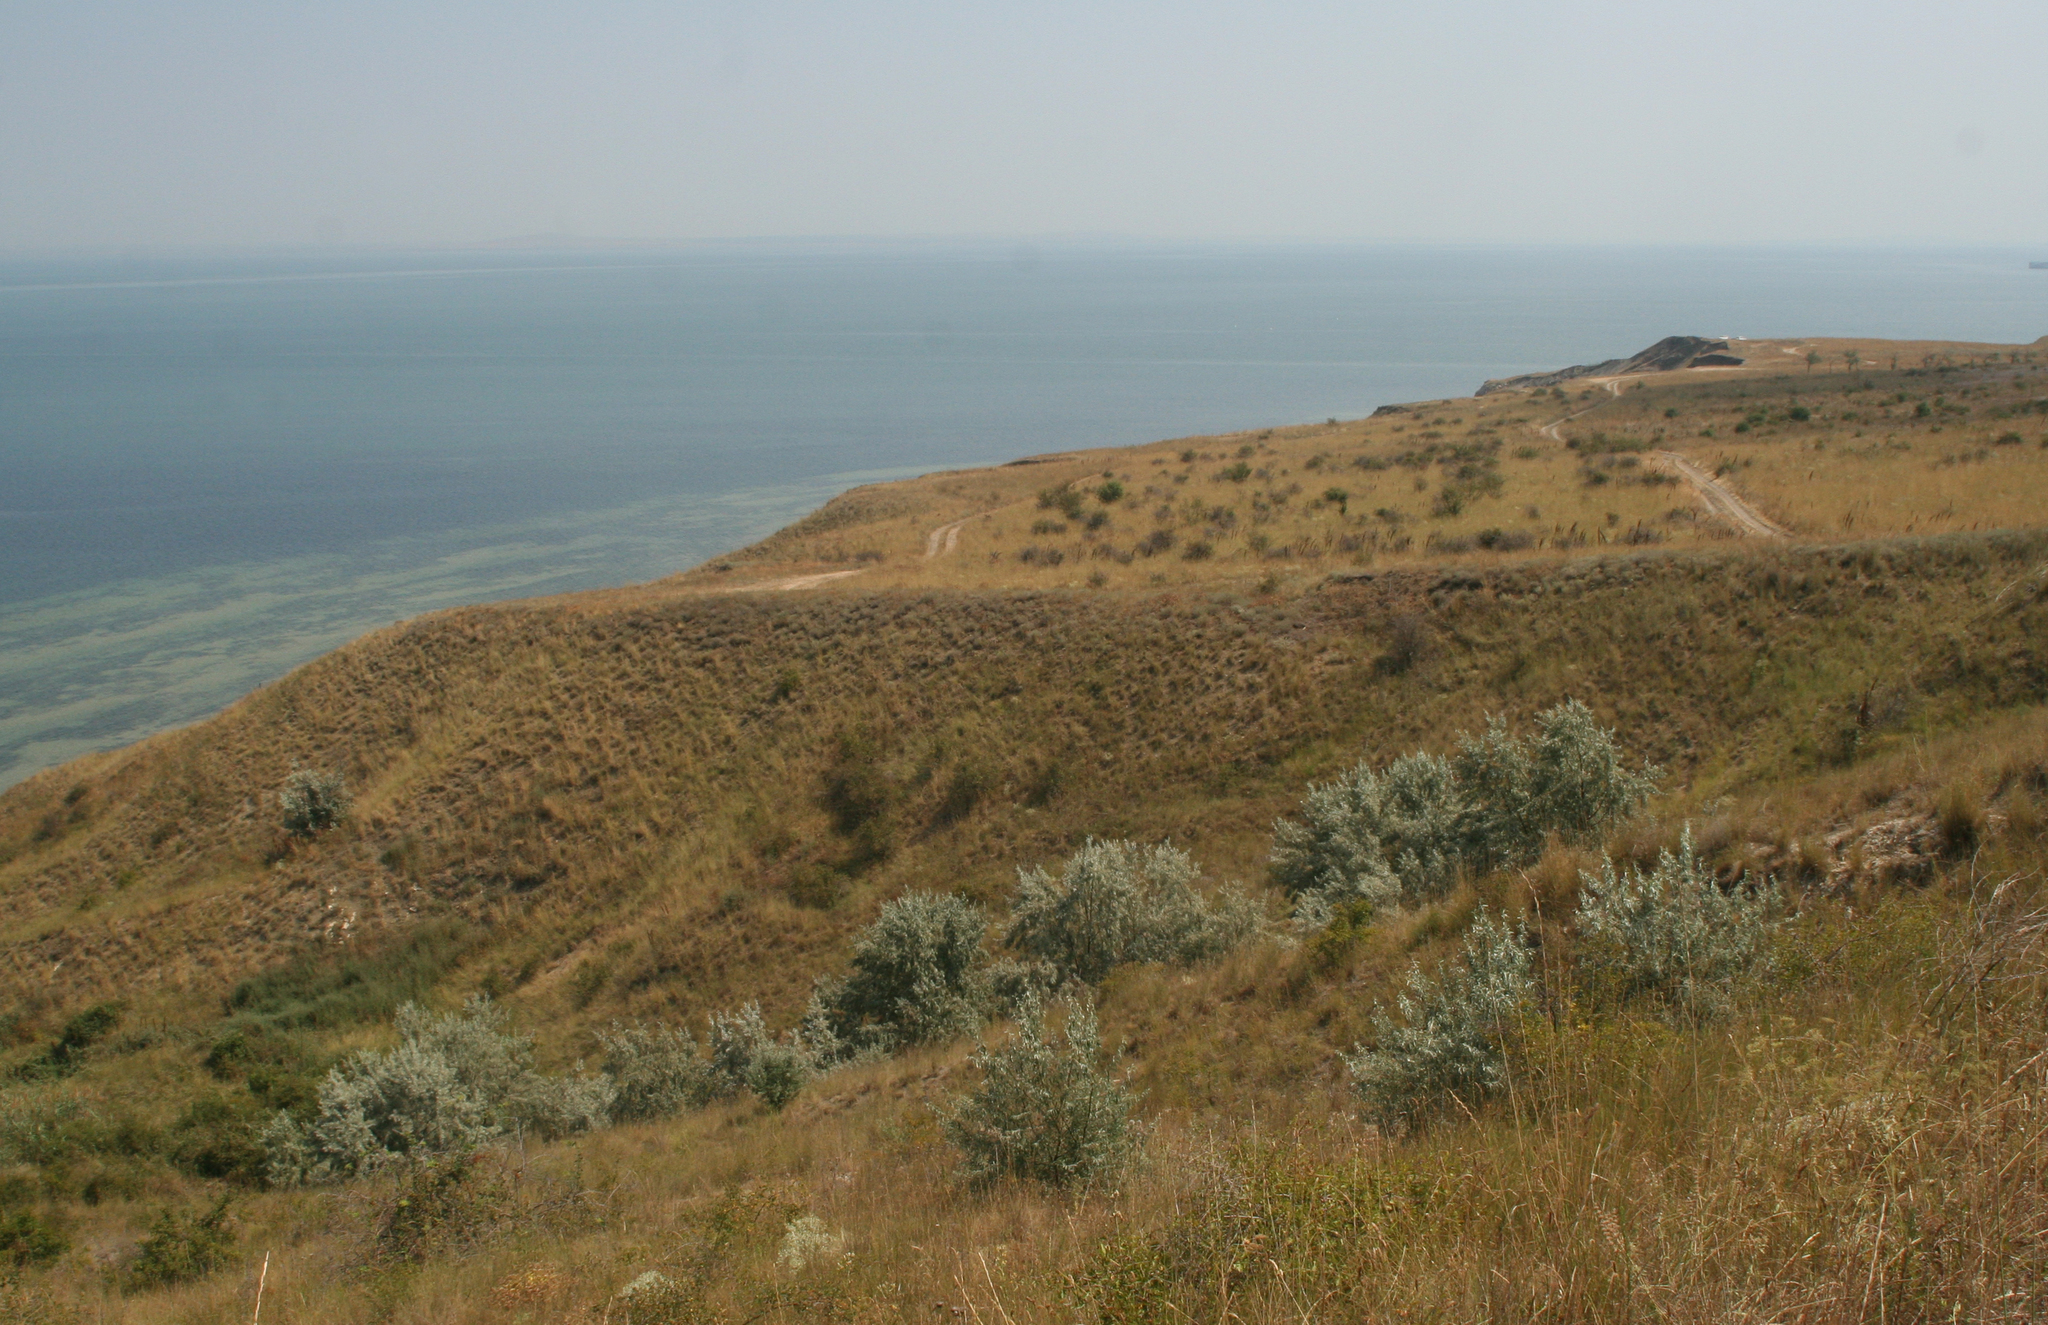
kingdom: Plantae
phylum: Tracheophyta
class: Magnoliopsida
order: Rosales
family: Elaeagnaceae
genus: Elaeagnus
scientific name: Elaeagnus angustifolia
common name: Russian olive
